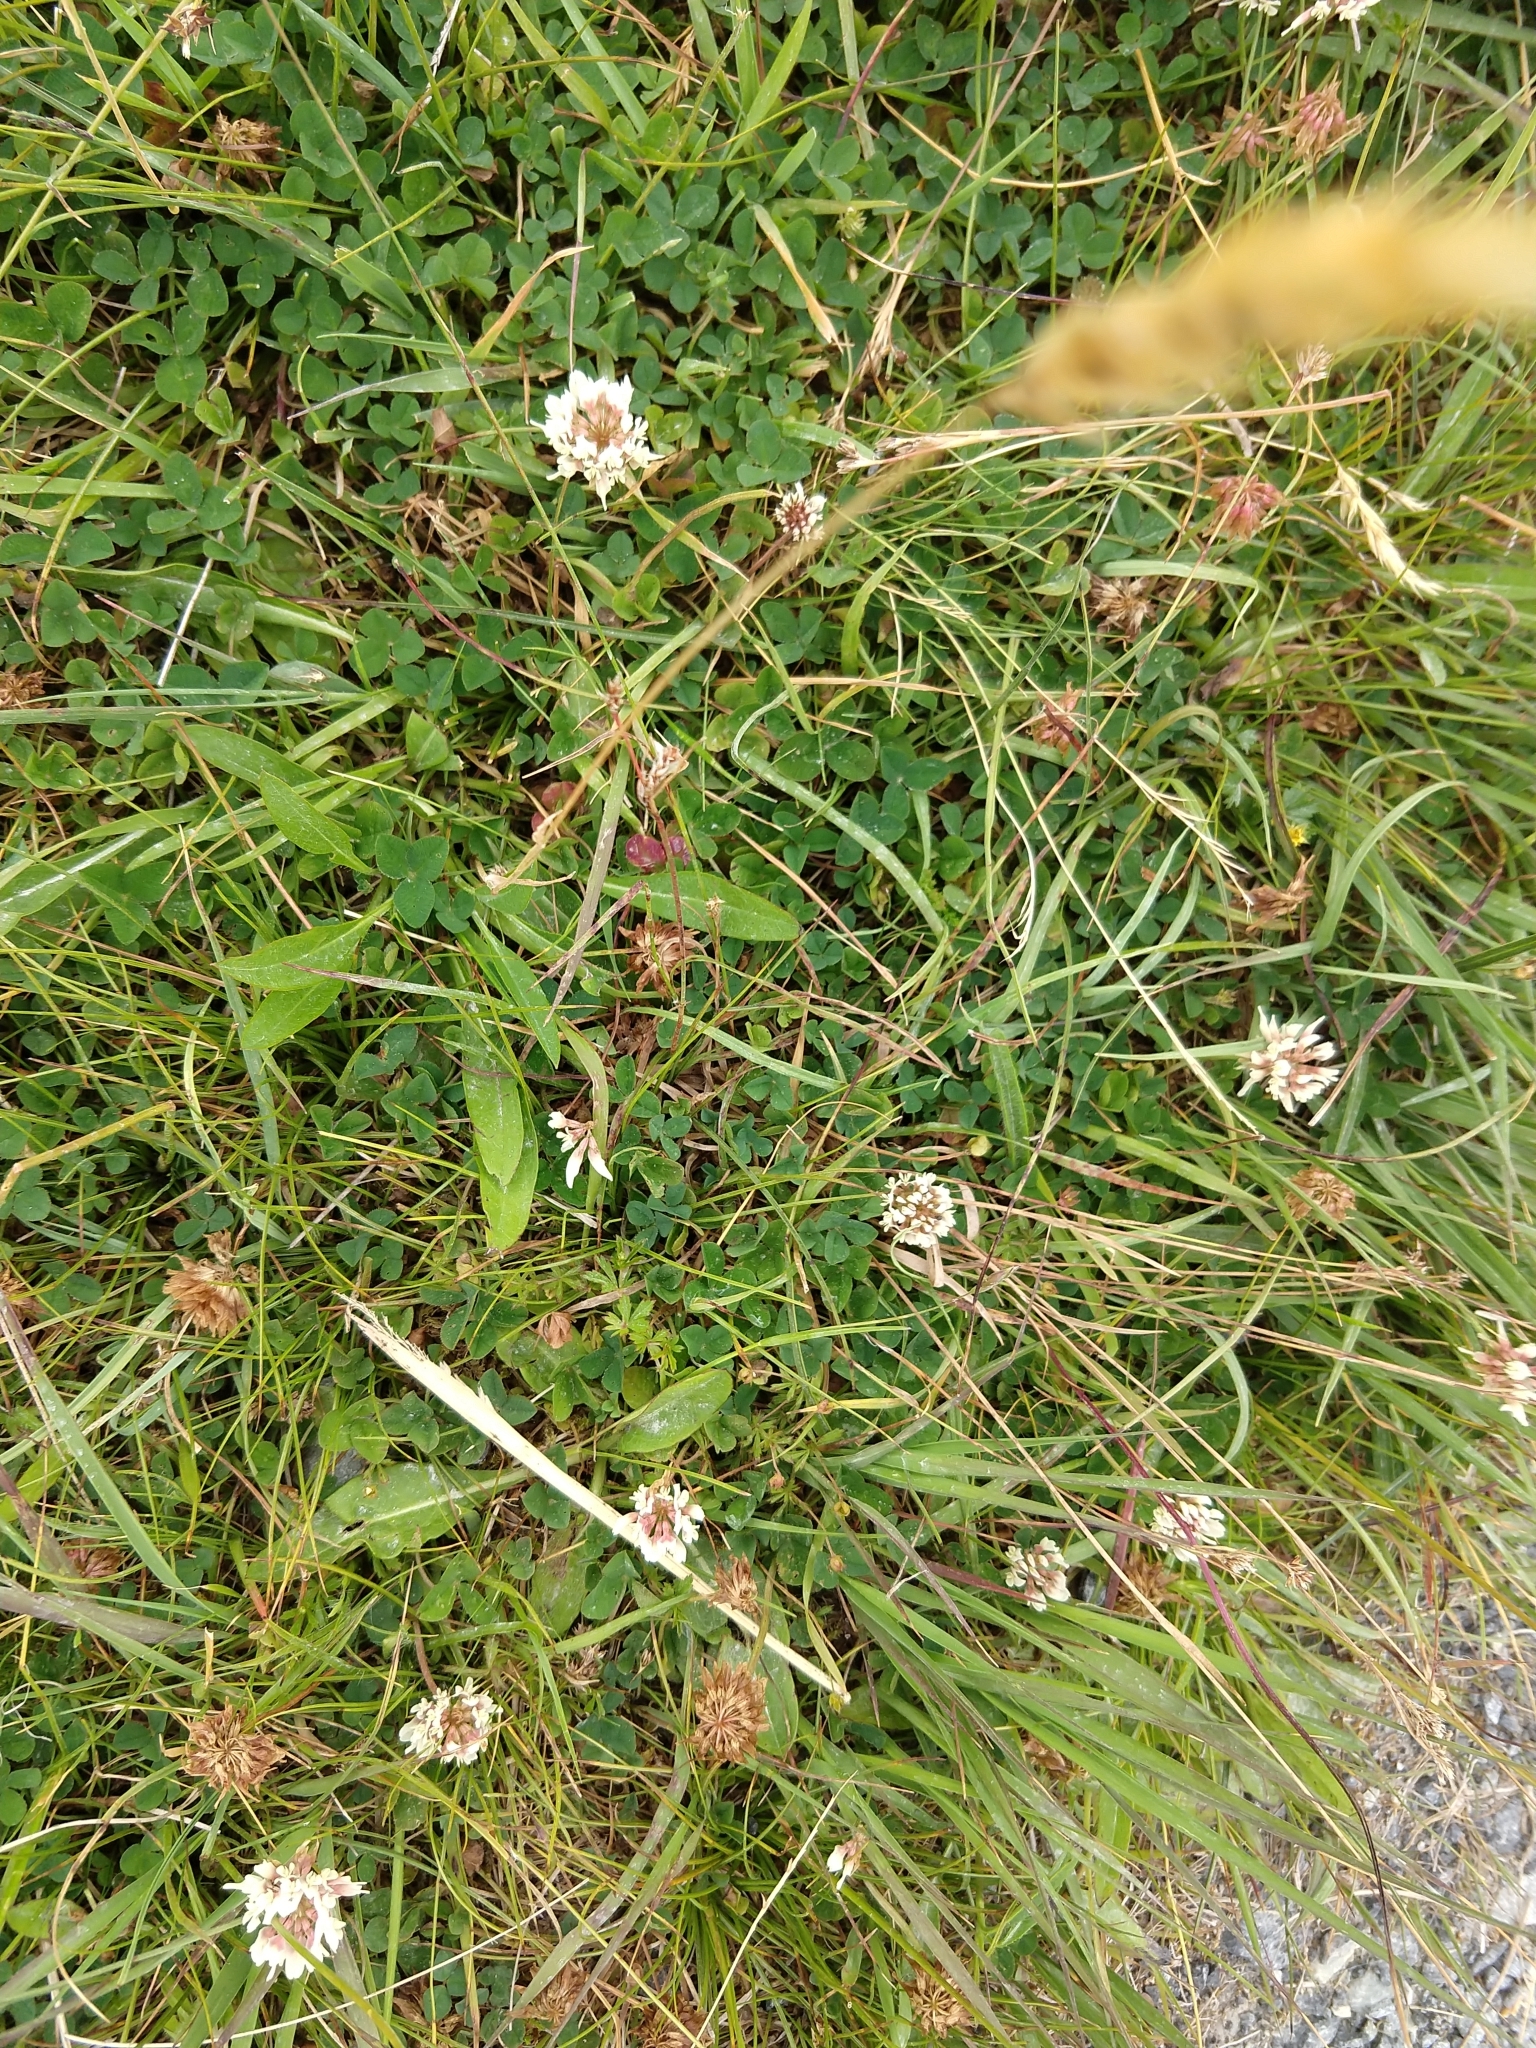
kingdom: Plantae
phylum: Tracheophyta
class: Magnoliopsida
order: Fabales
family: Fabaceae
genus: Trifolium
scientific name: Trifolium repens
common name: White clover
